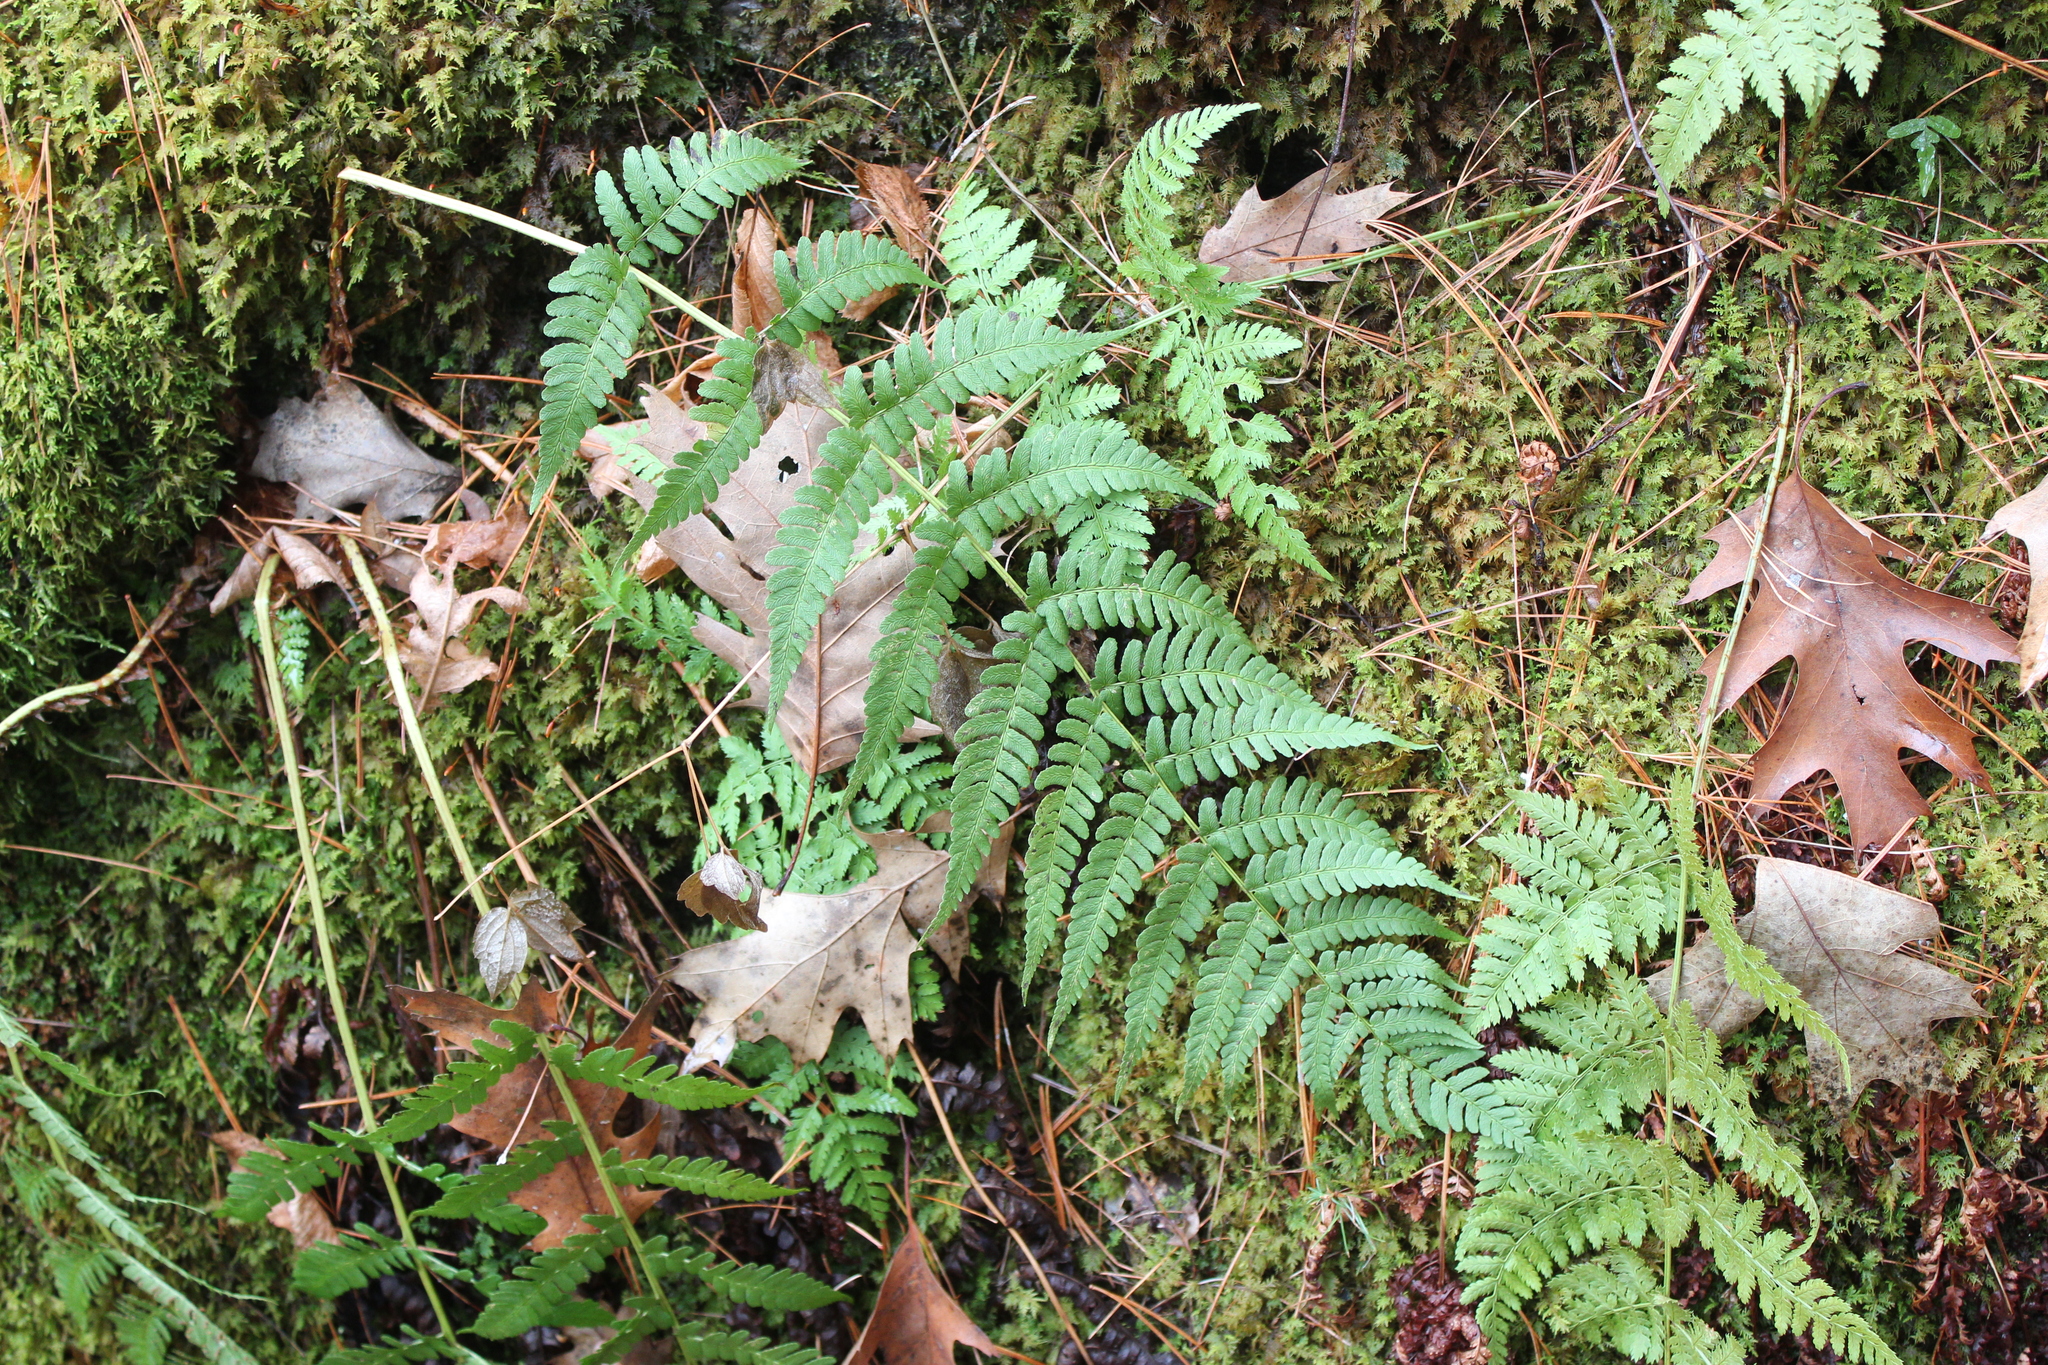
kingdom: Plantae
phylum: Tracheophyta
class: Polypodiopsida
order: Polypodiales
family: Dryopteridaceae
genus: Dryopteris
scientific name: Dryopteris marginalis
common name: Marginal wood fern
